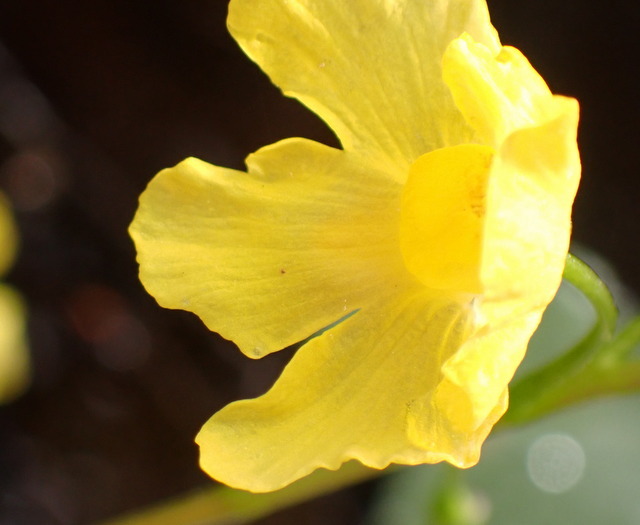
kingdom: Plantae
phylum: Tracheophyta
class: Magnoliopsida
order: Lamiales
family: Lentibulariaceae
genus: Utricularia
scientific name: Utricularia inflata
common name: Floating bladderwort
